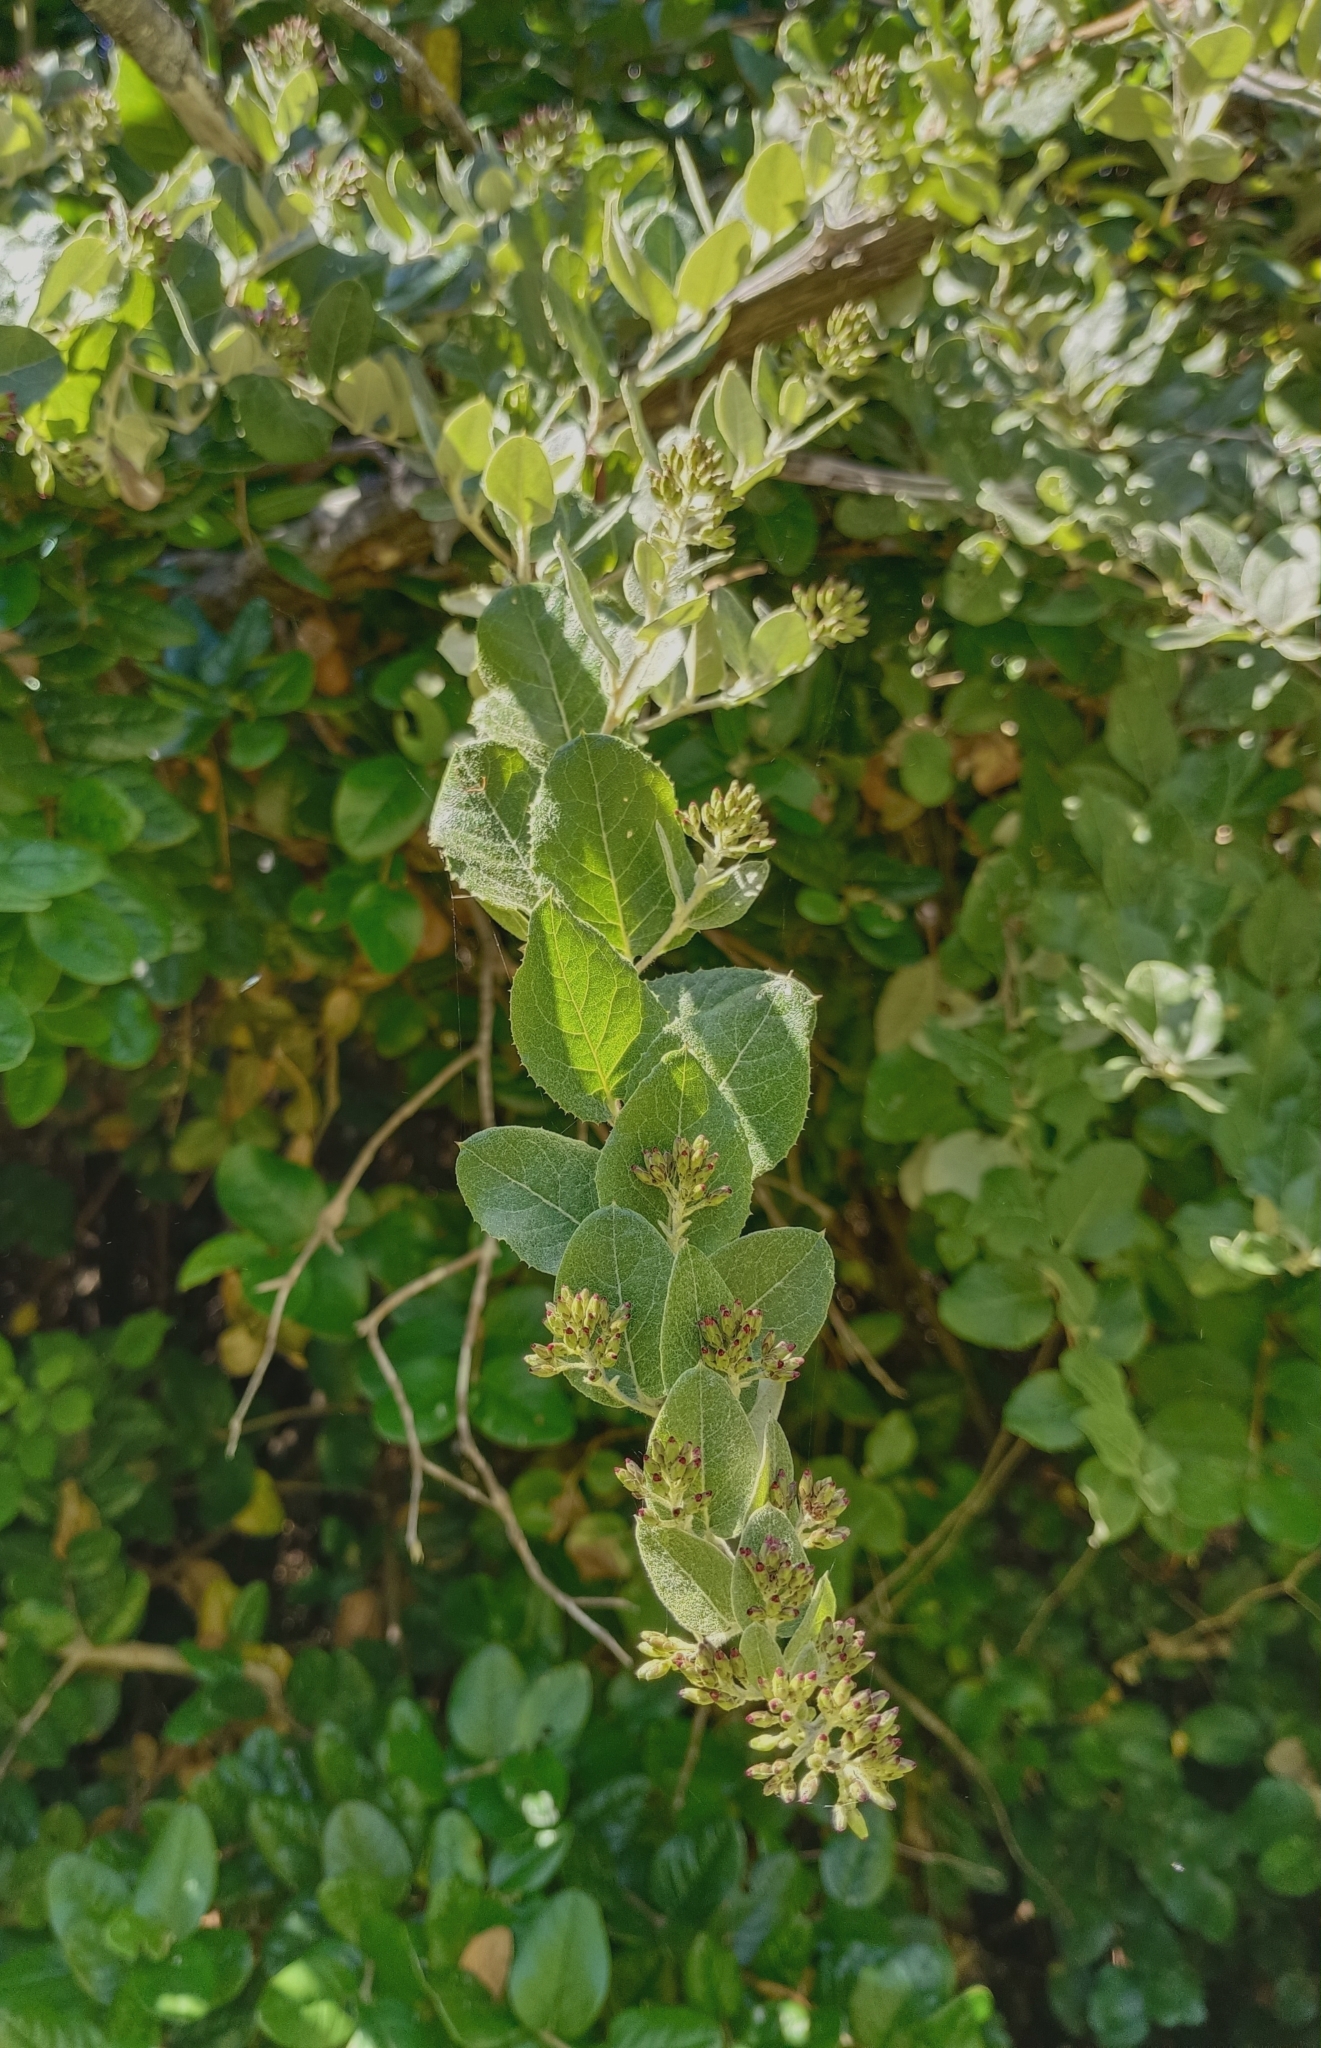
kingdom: Plantae
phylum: Tracheophyta
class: Magnoliopsida
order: Asterales
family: Asteraceae
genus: Proustia
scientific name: Proustia pyrifolia
